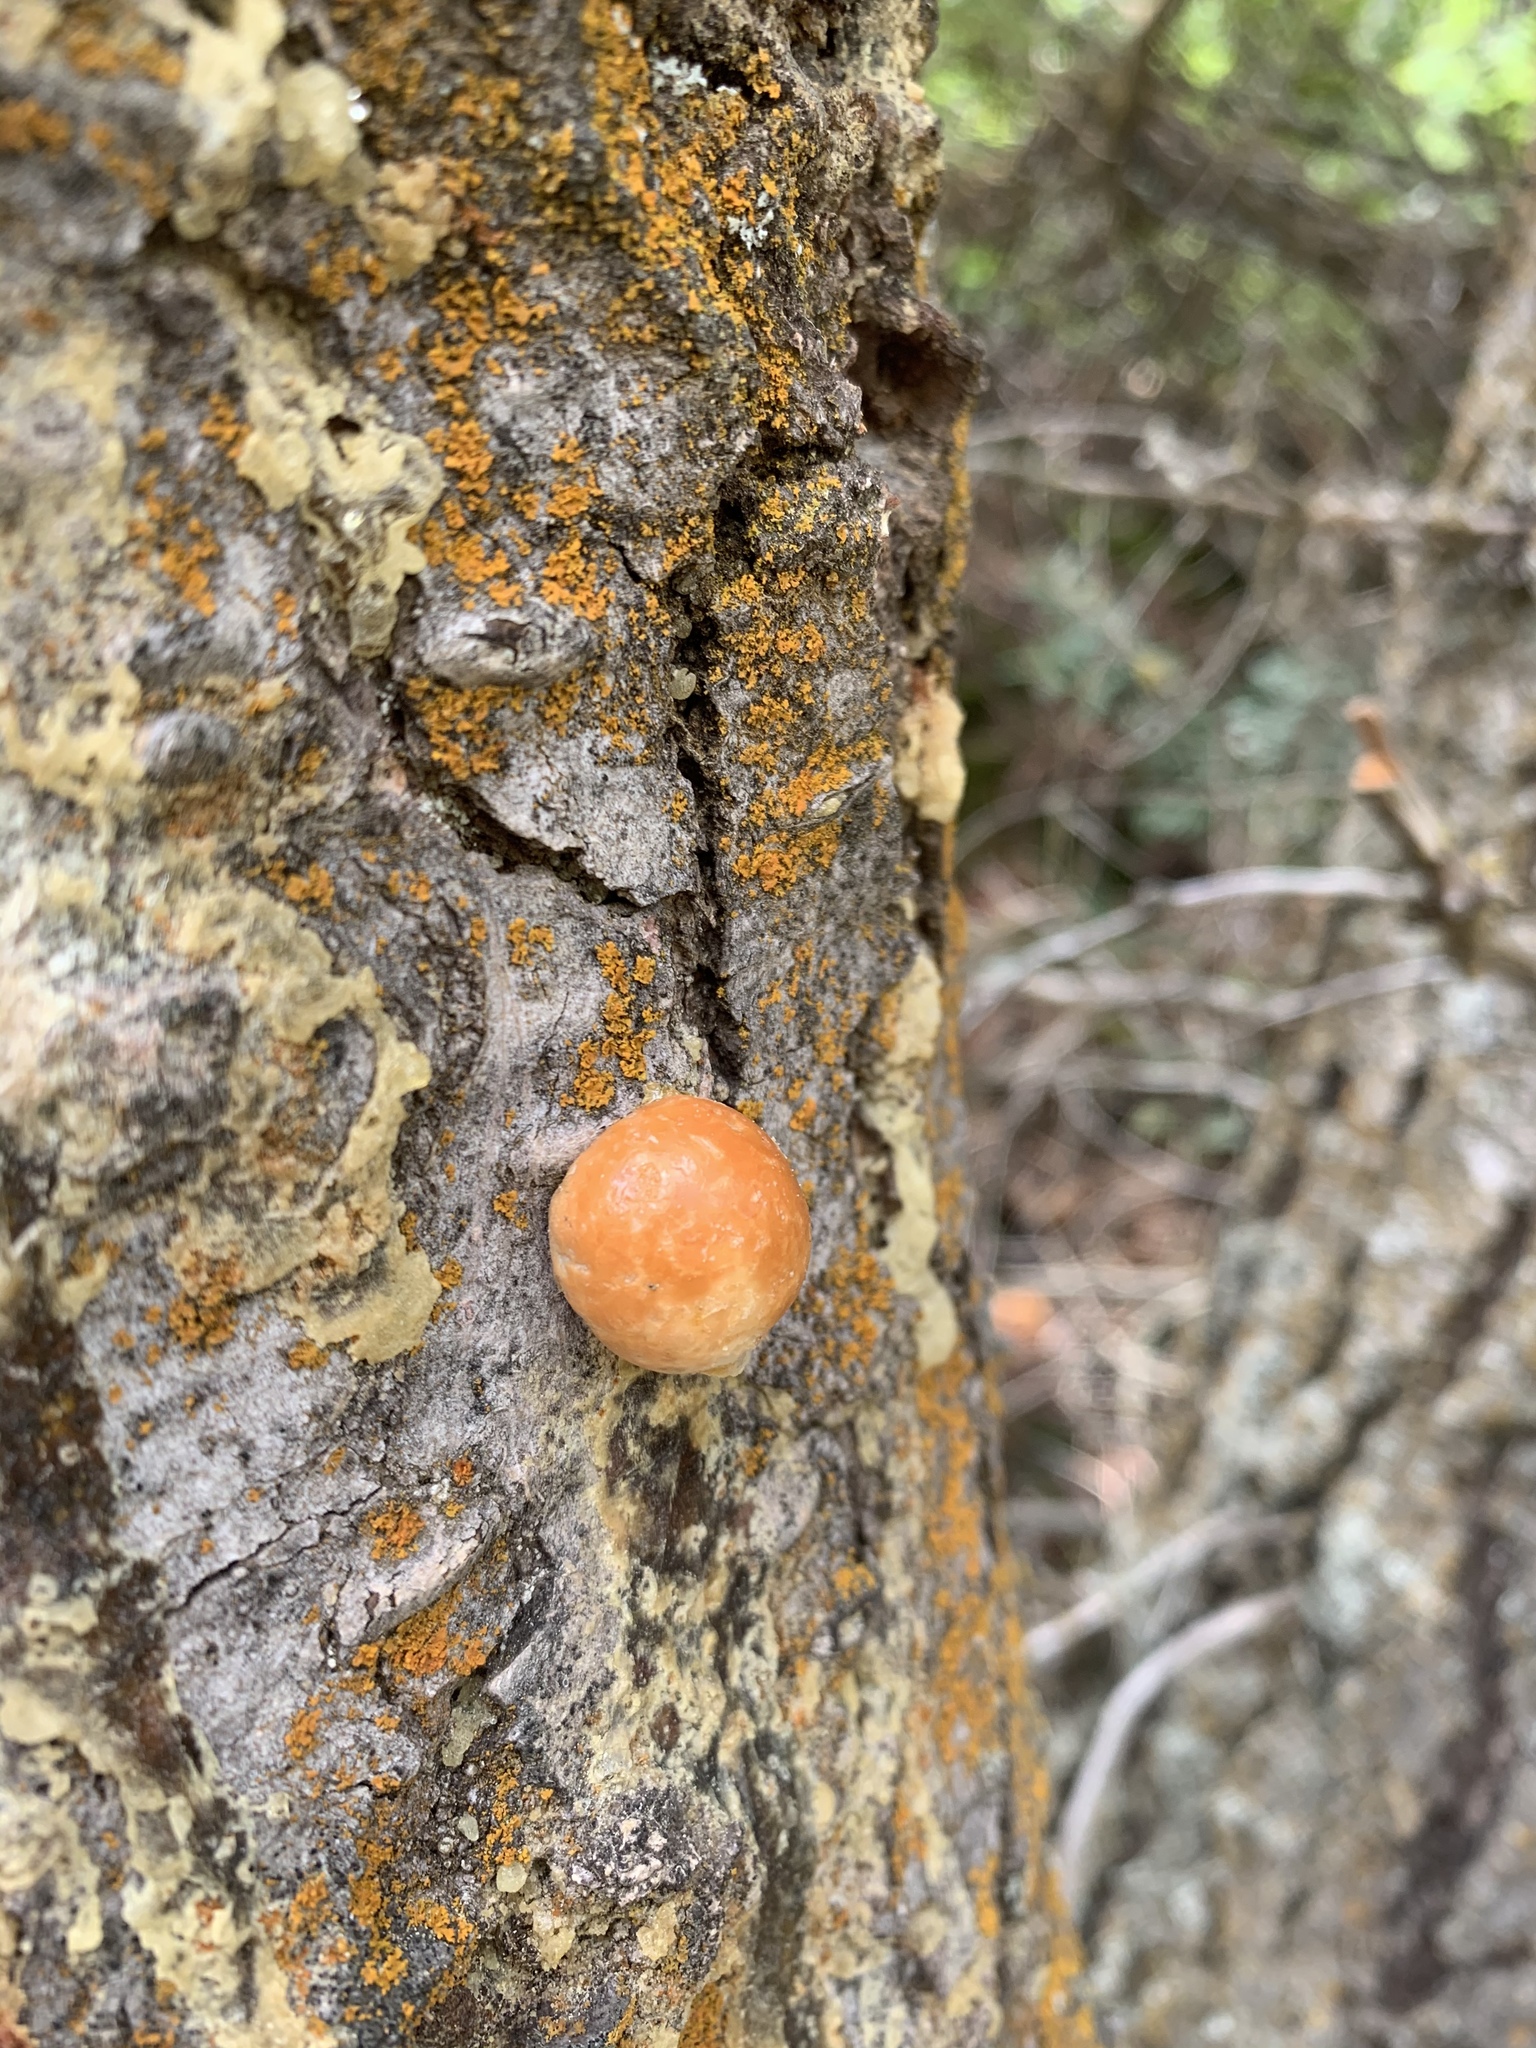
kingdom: Fungi
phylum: Basidiomycota
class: Agaricomycetes
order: Polyporales
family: Polyporaceae
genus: Cryptoporus
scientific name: Cryptoporus volvatus
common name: Veiled polypore
